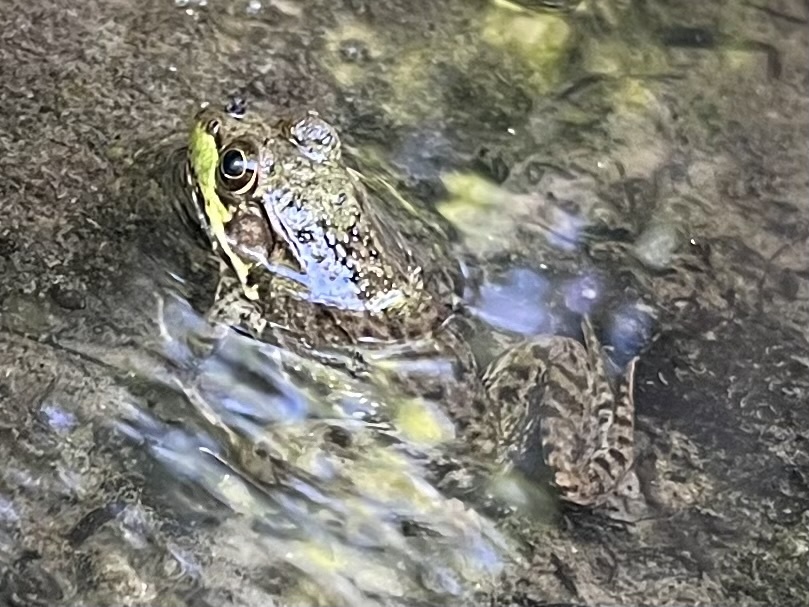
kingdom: Animalia
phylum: Chordata
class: Amphibia
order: Anura
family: Ranidae
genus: Lithobates
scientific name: Lithobates clamitans
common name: Green frog
